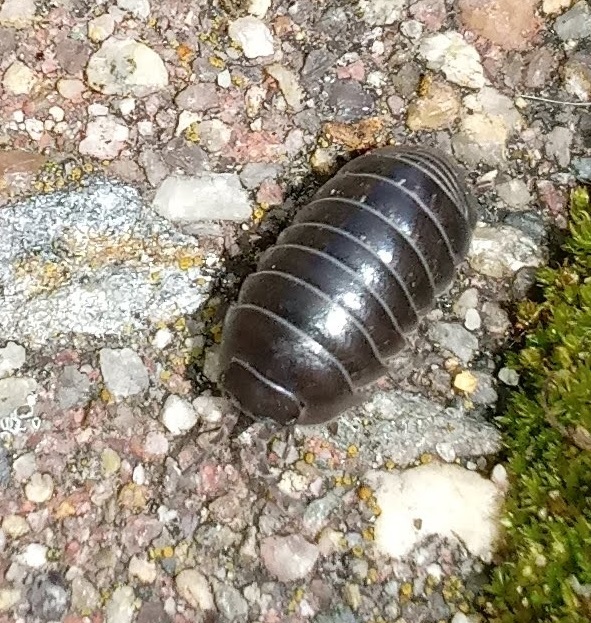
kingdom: Animalia
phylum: Arthropoda
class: Malacostraca
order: Isopoda
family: Armadillidiidae
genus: Armadillidium
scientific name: Armadillidium vulgare
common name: Common pill woodlouse
